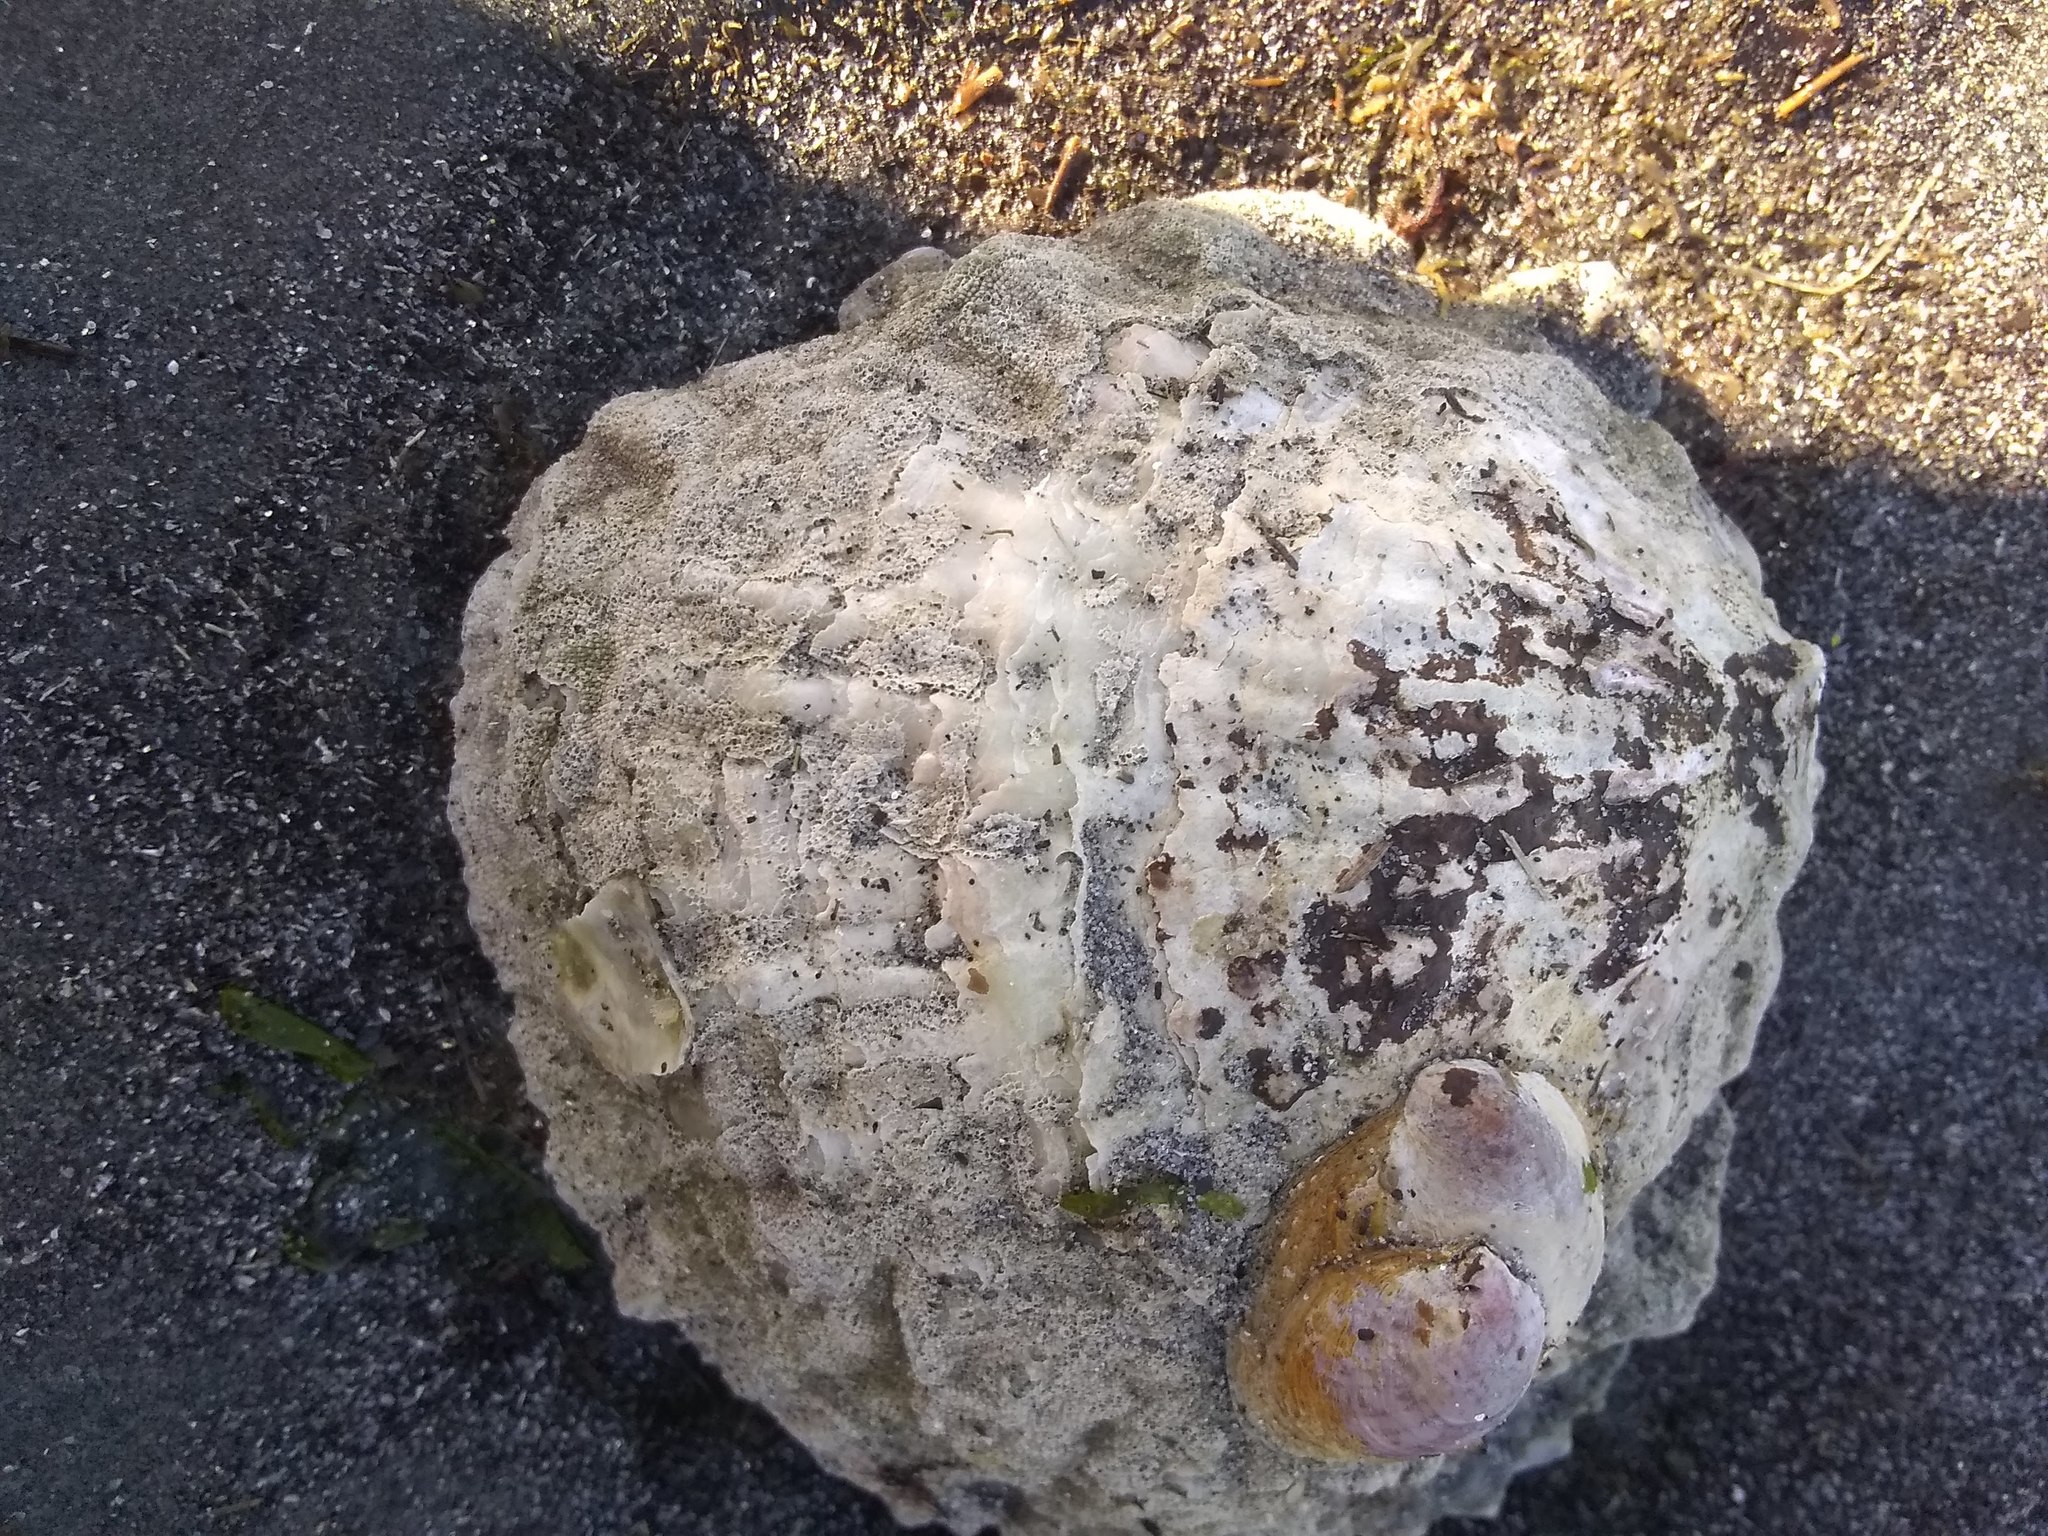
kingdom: Animalia
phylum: Mollusca
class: Bivalvia
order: Ostreida
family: Ostreidae
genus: Ostrea
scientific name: Ostrea edulis
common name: Flat oyster
